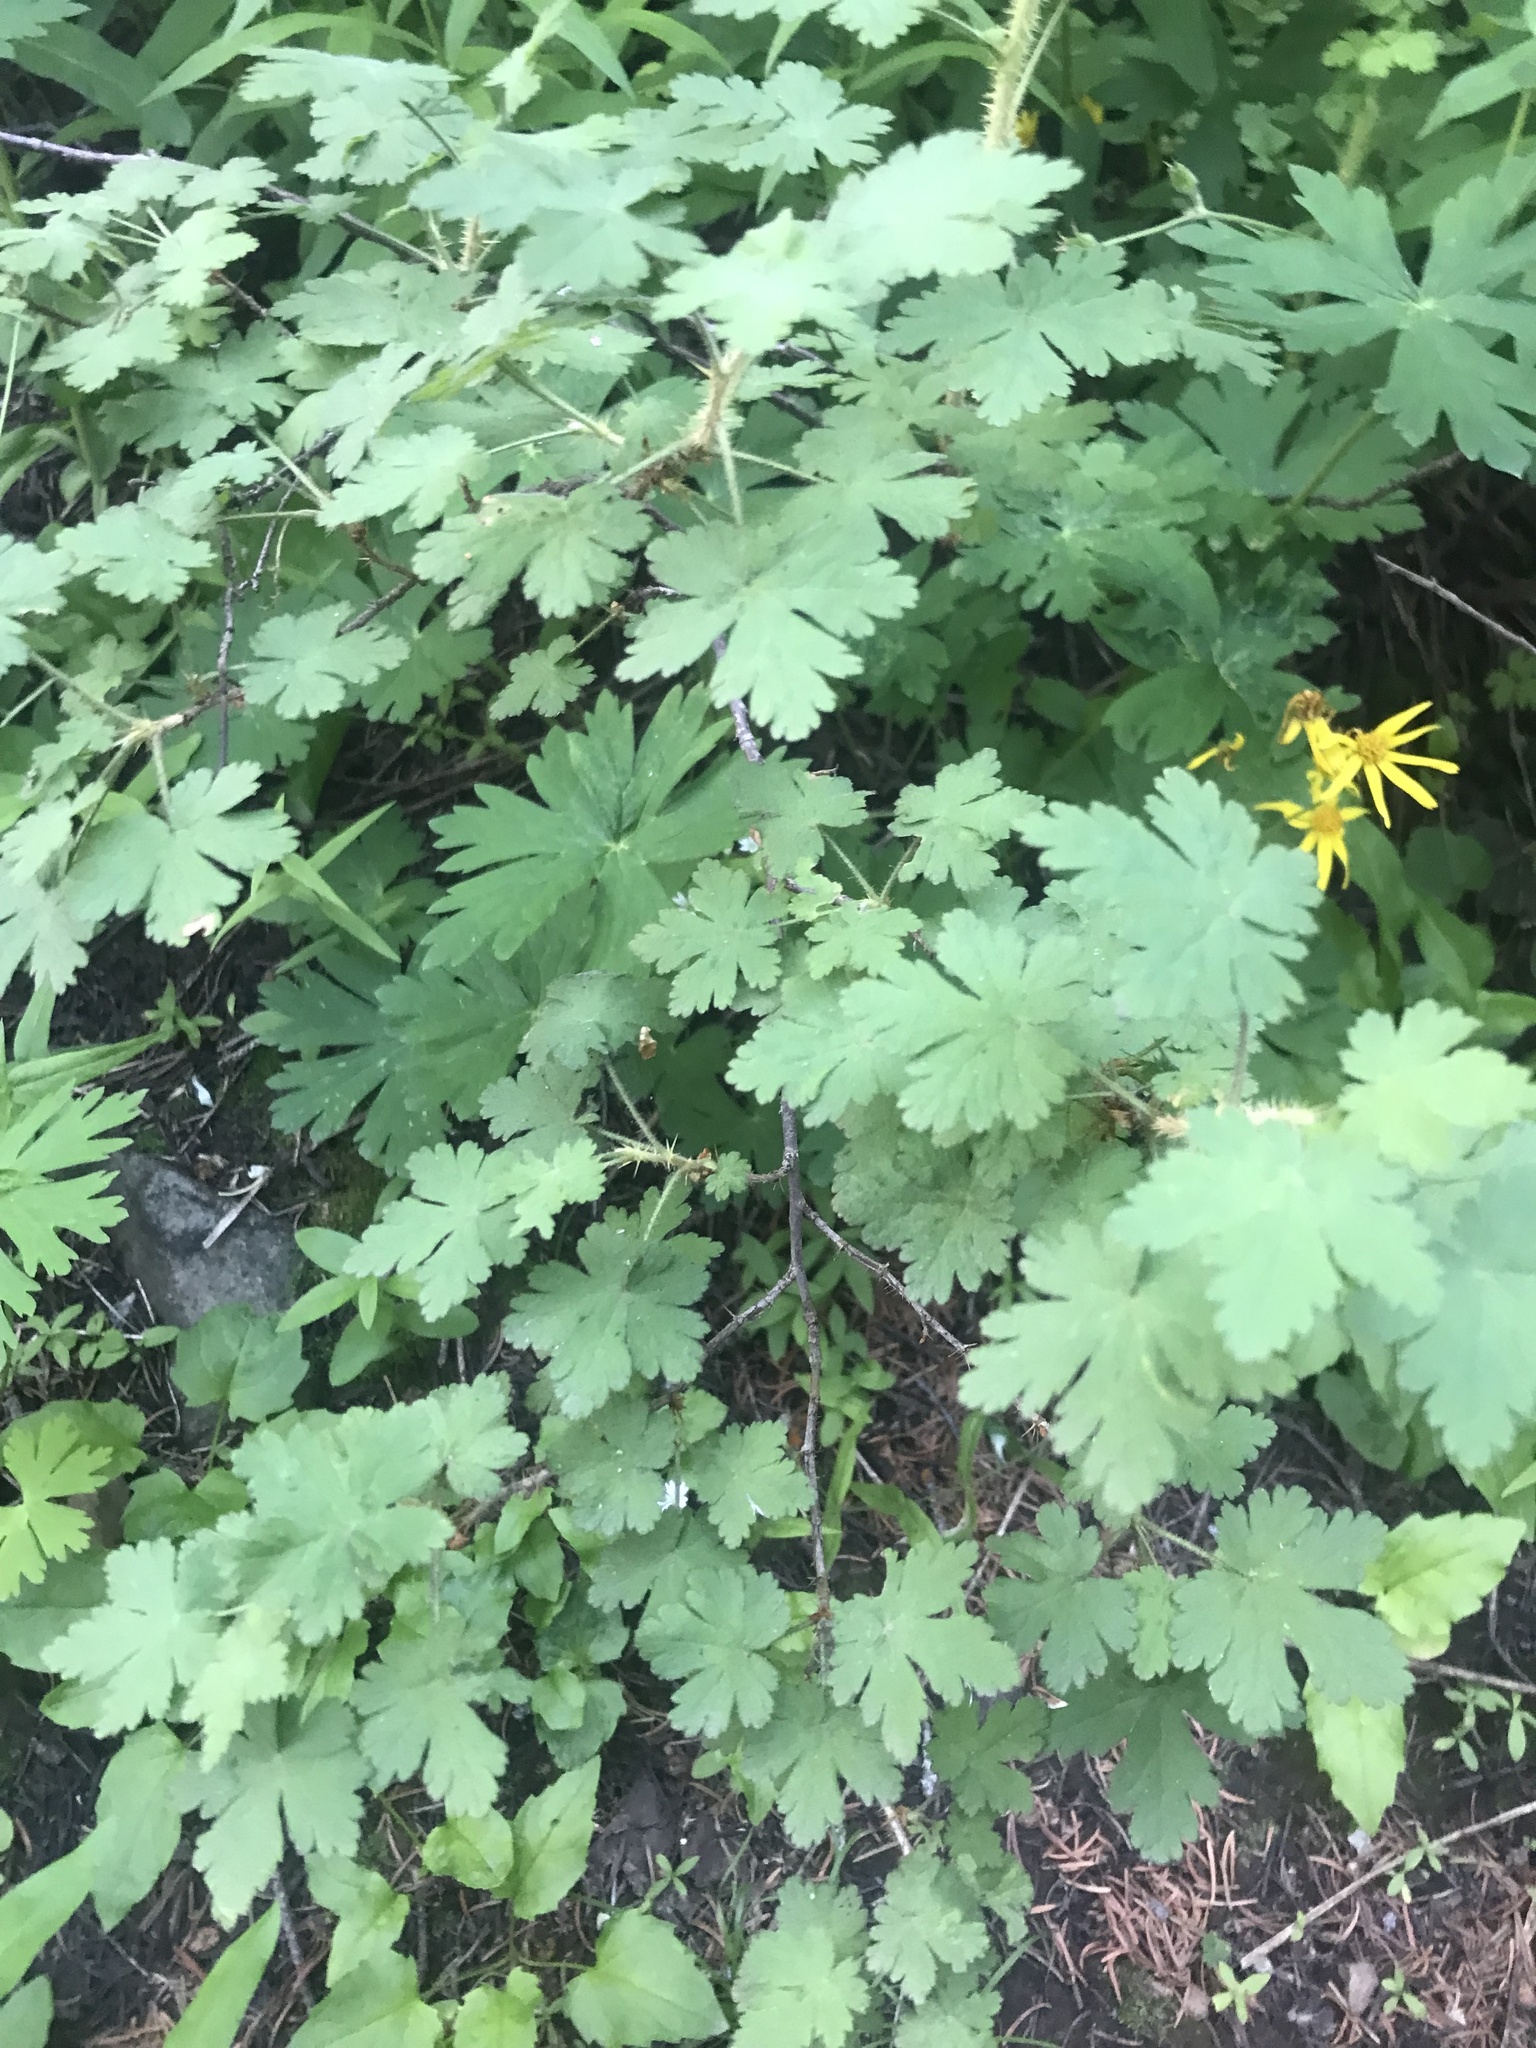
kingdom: Plantae
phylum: Tracheophyta
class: Magnoliopsida
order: Saxifragales
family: Grossulariaceae
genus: Ribes
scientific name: Ribes montigenum
